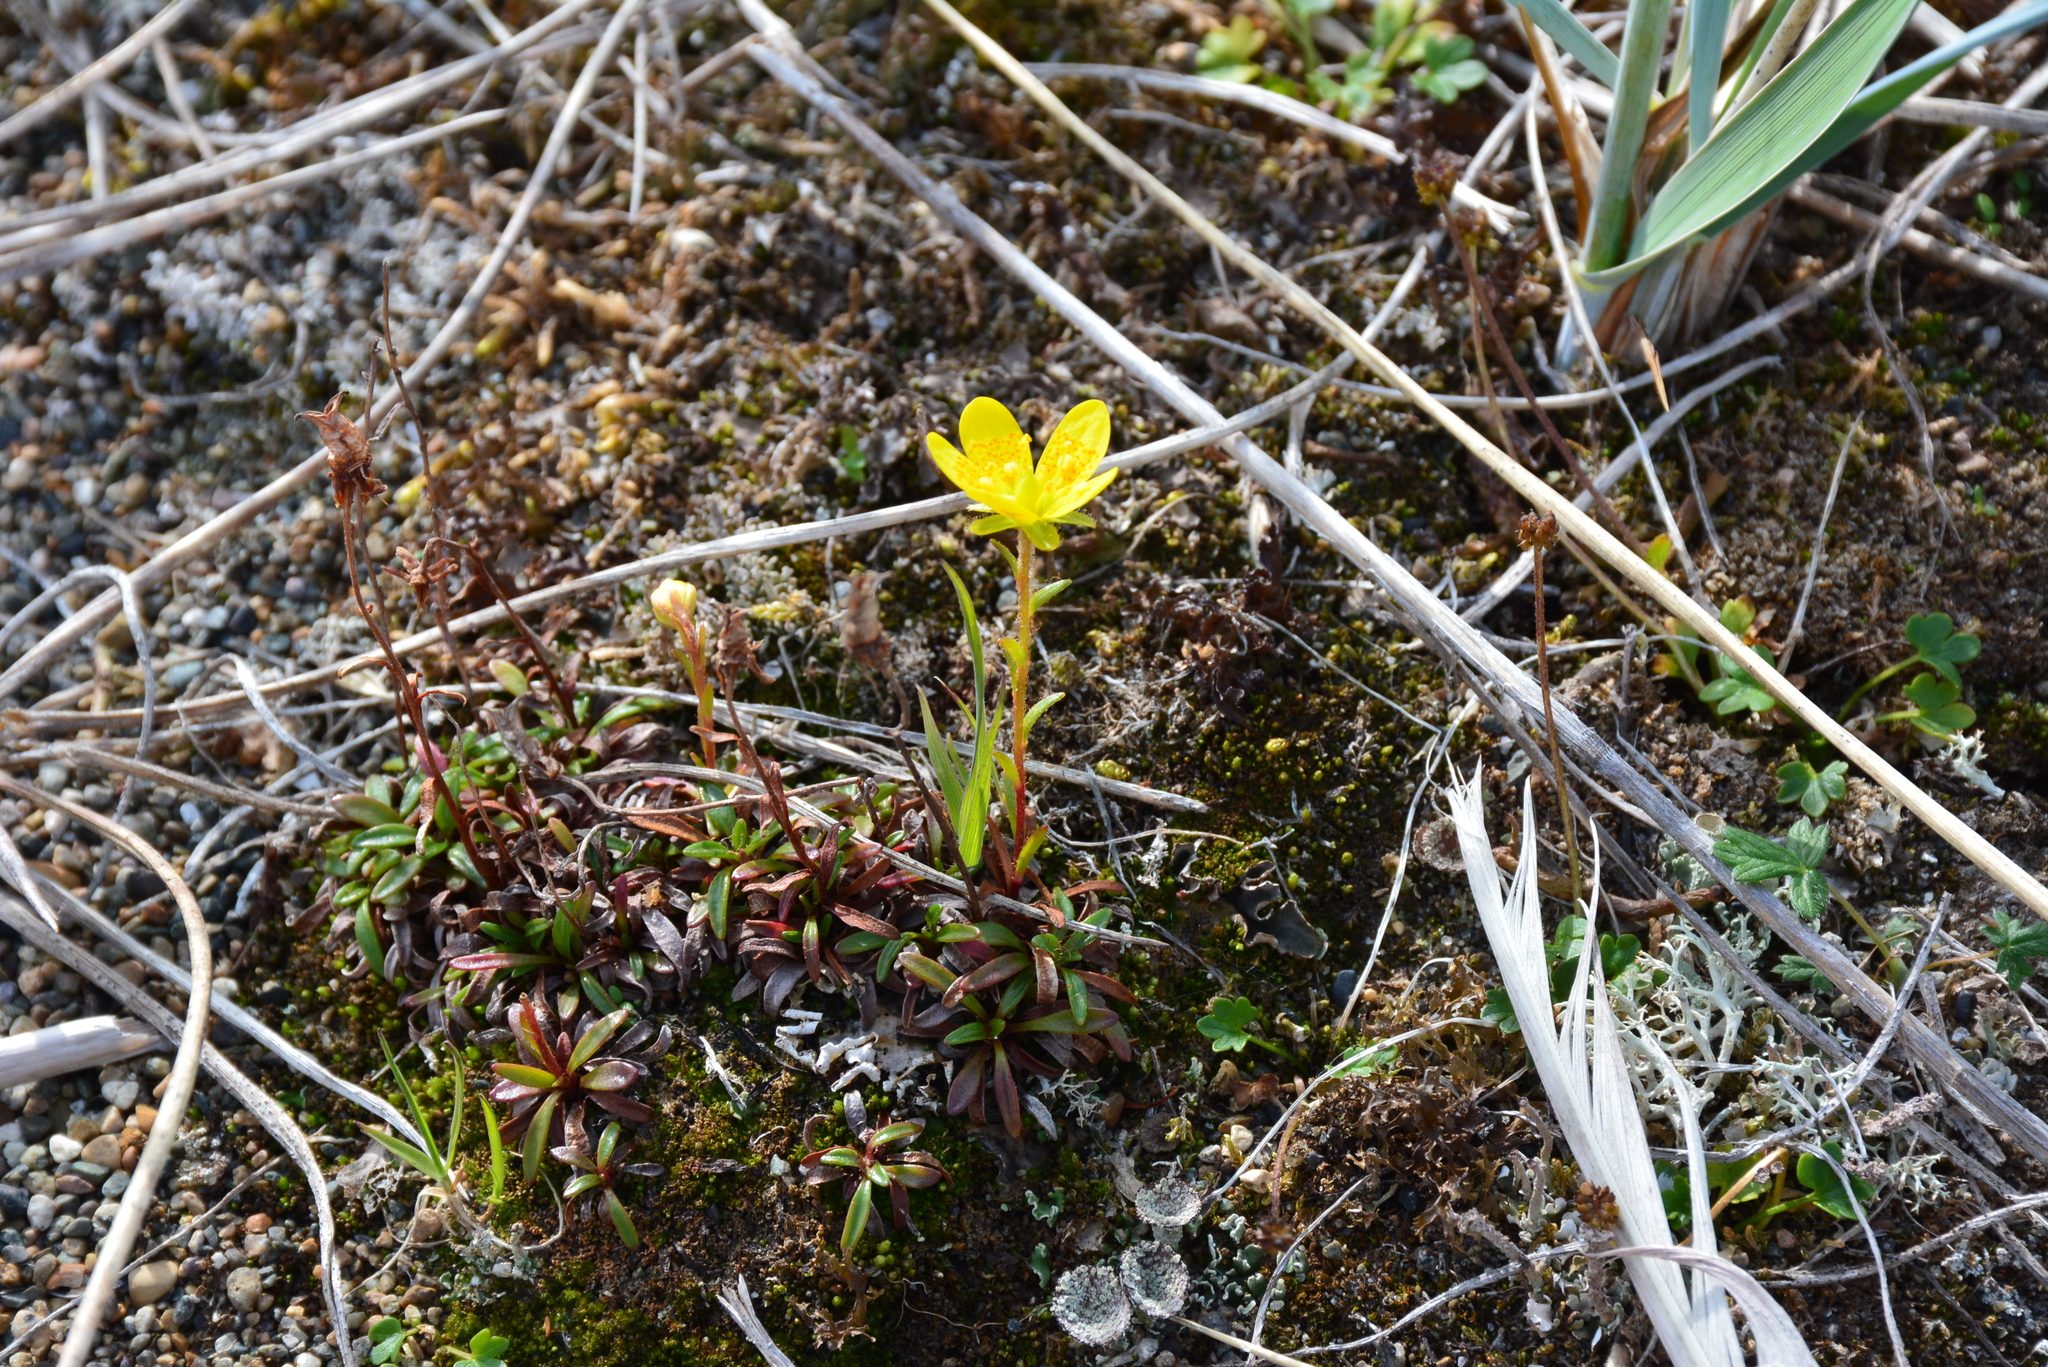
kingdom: Plantae
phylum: Tracheophyta
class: Magnoliopsida
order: Saxifragales
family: Saxifragaceae
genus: Saxifraga
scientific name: Saxifraga serpyllifolia
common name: Thyme-leaved saxifrage
